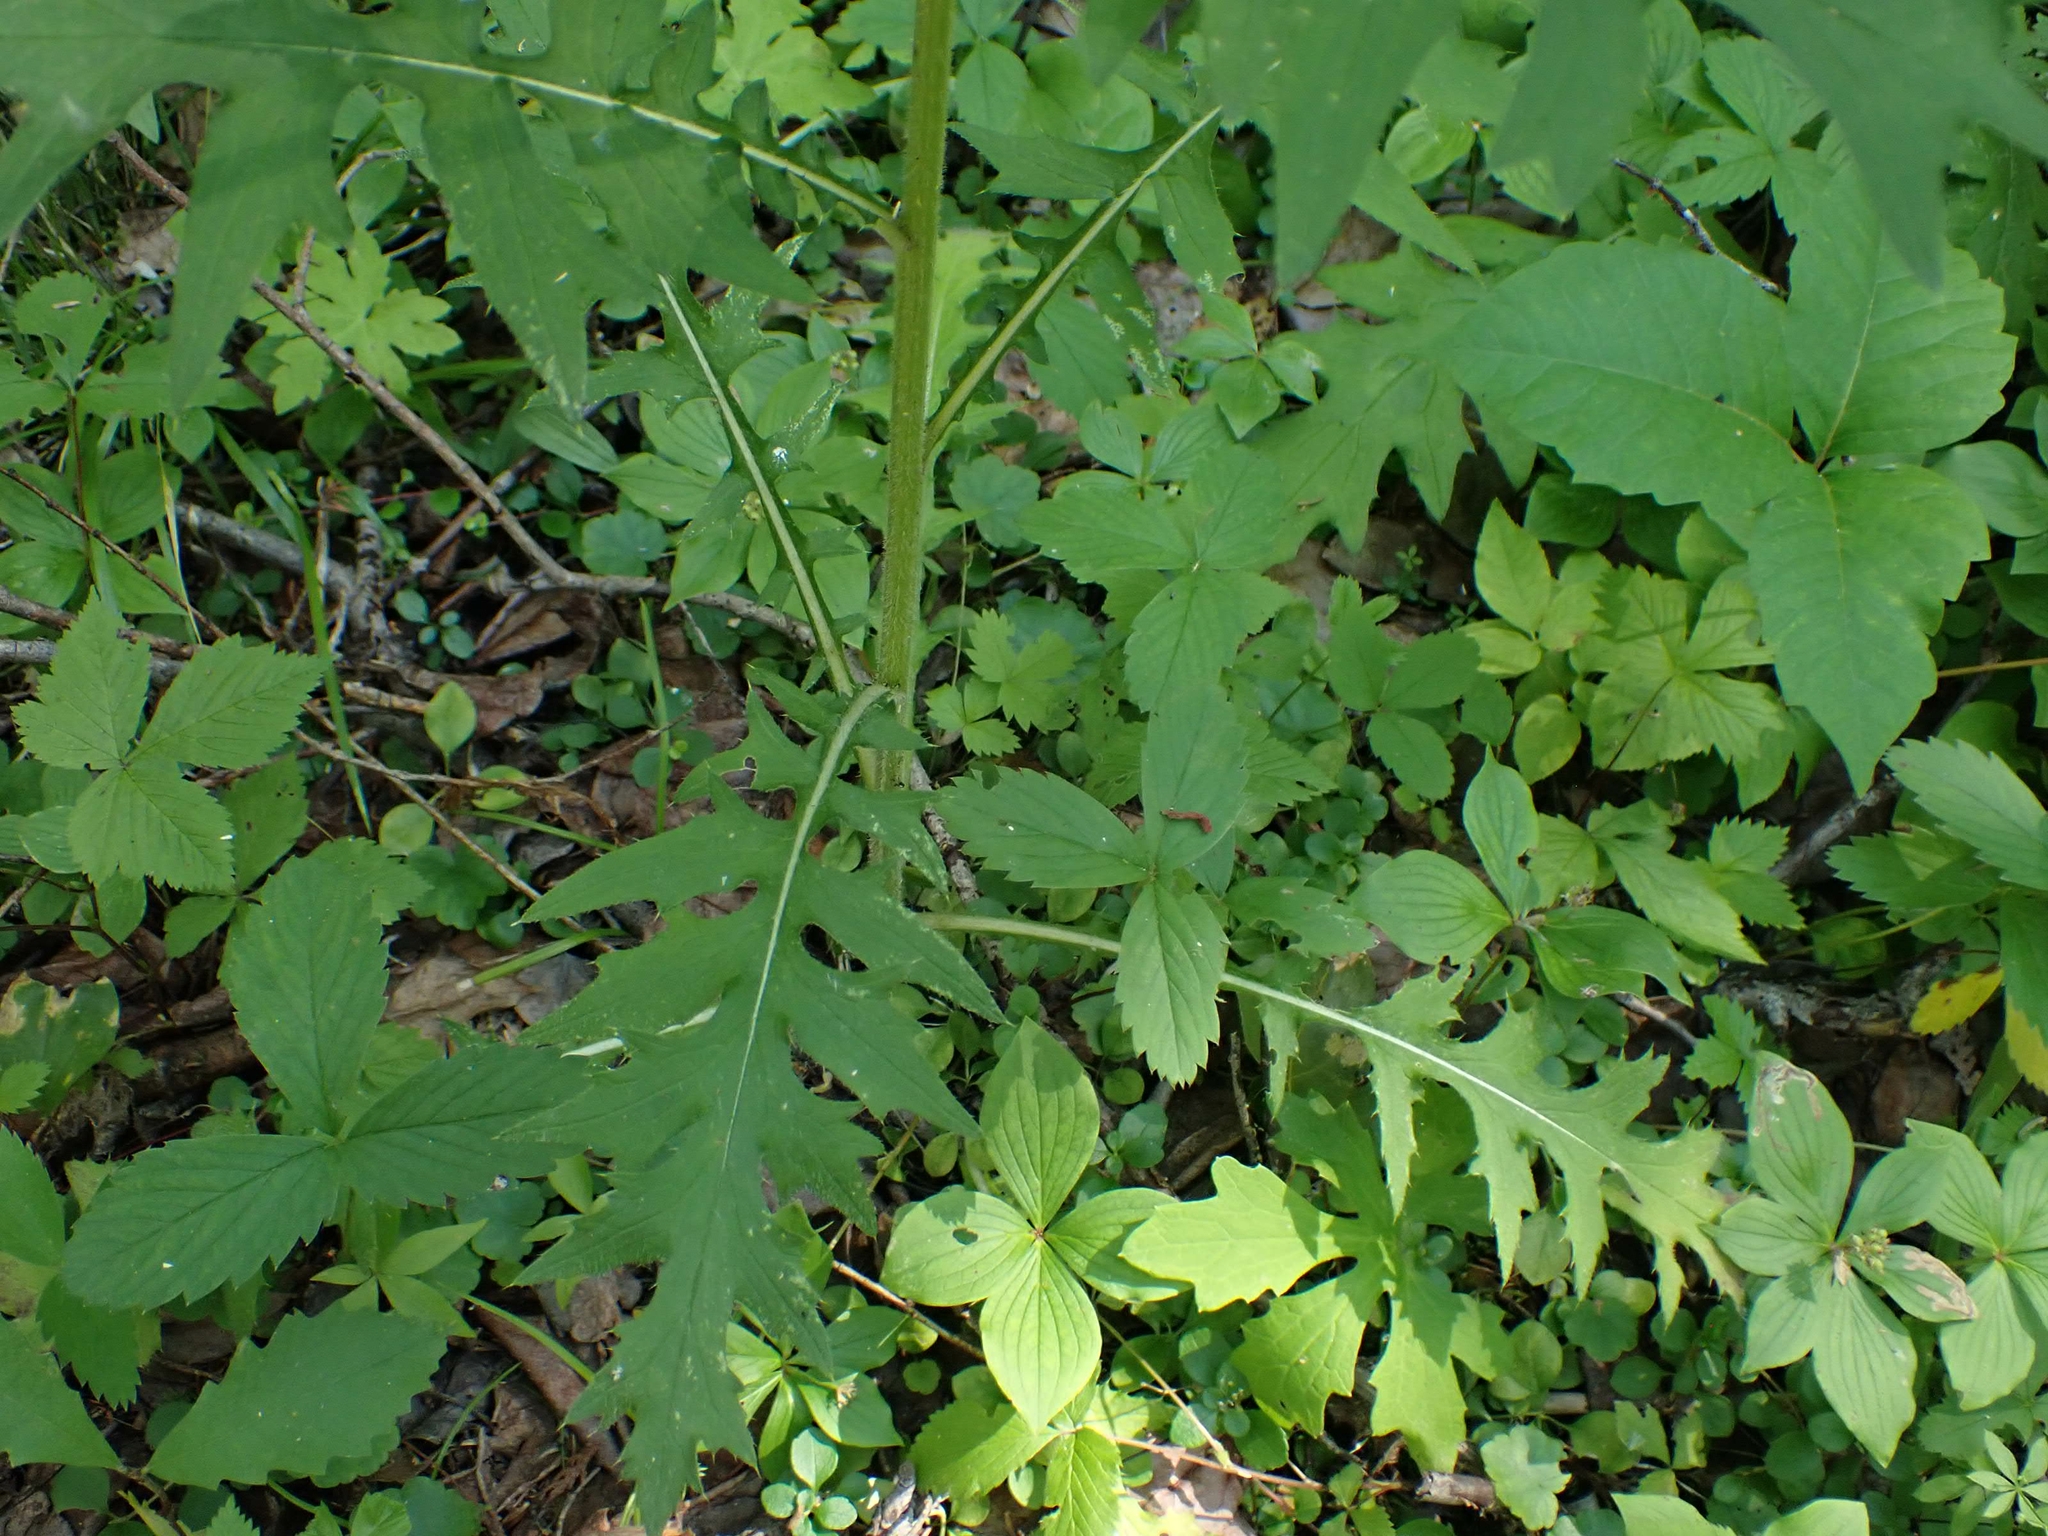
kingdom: Plantae
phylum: Tracheophyta
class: Magnoliopsida
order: Asterales
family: Asteraceae
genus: Cirsium
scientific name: Cirsium muticum
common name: Dunce-nettle
